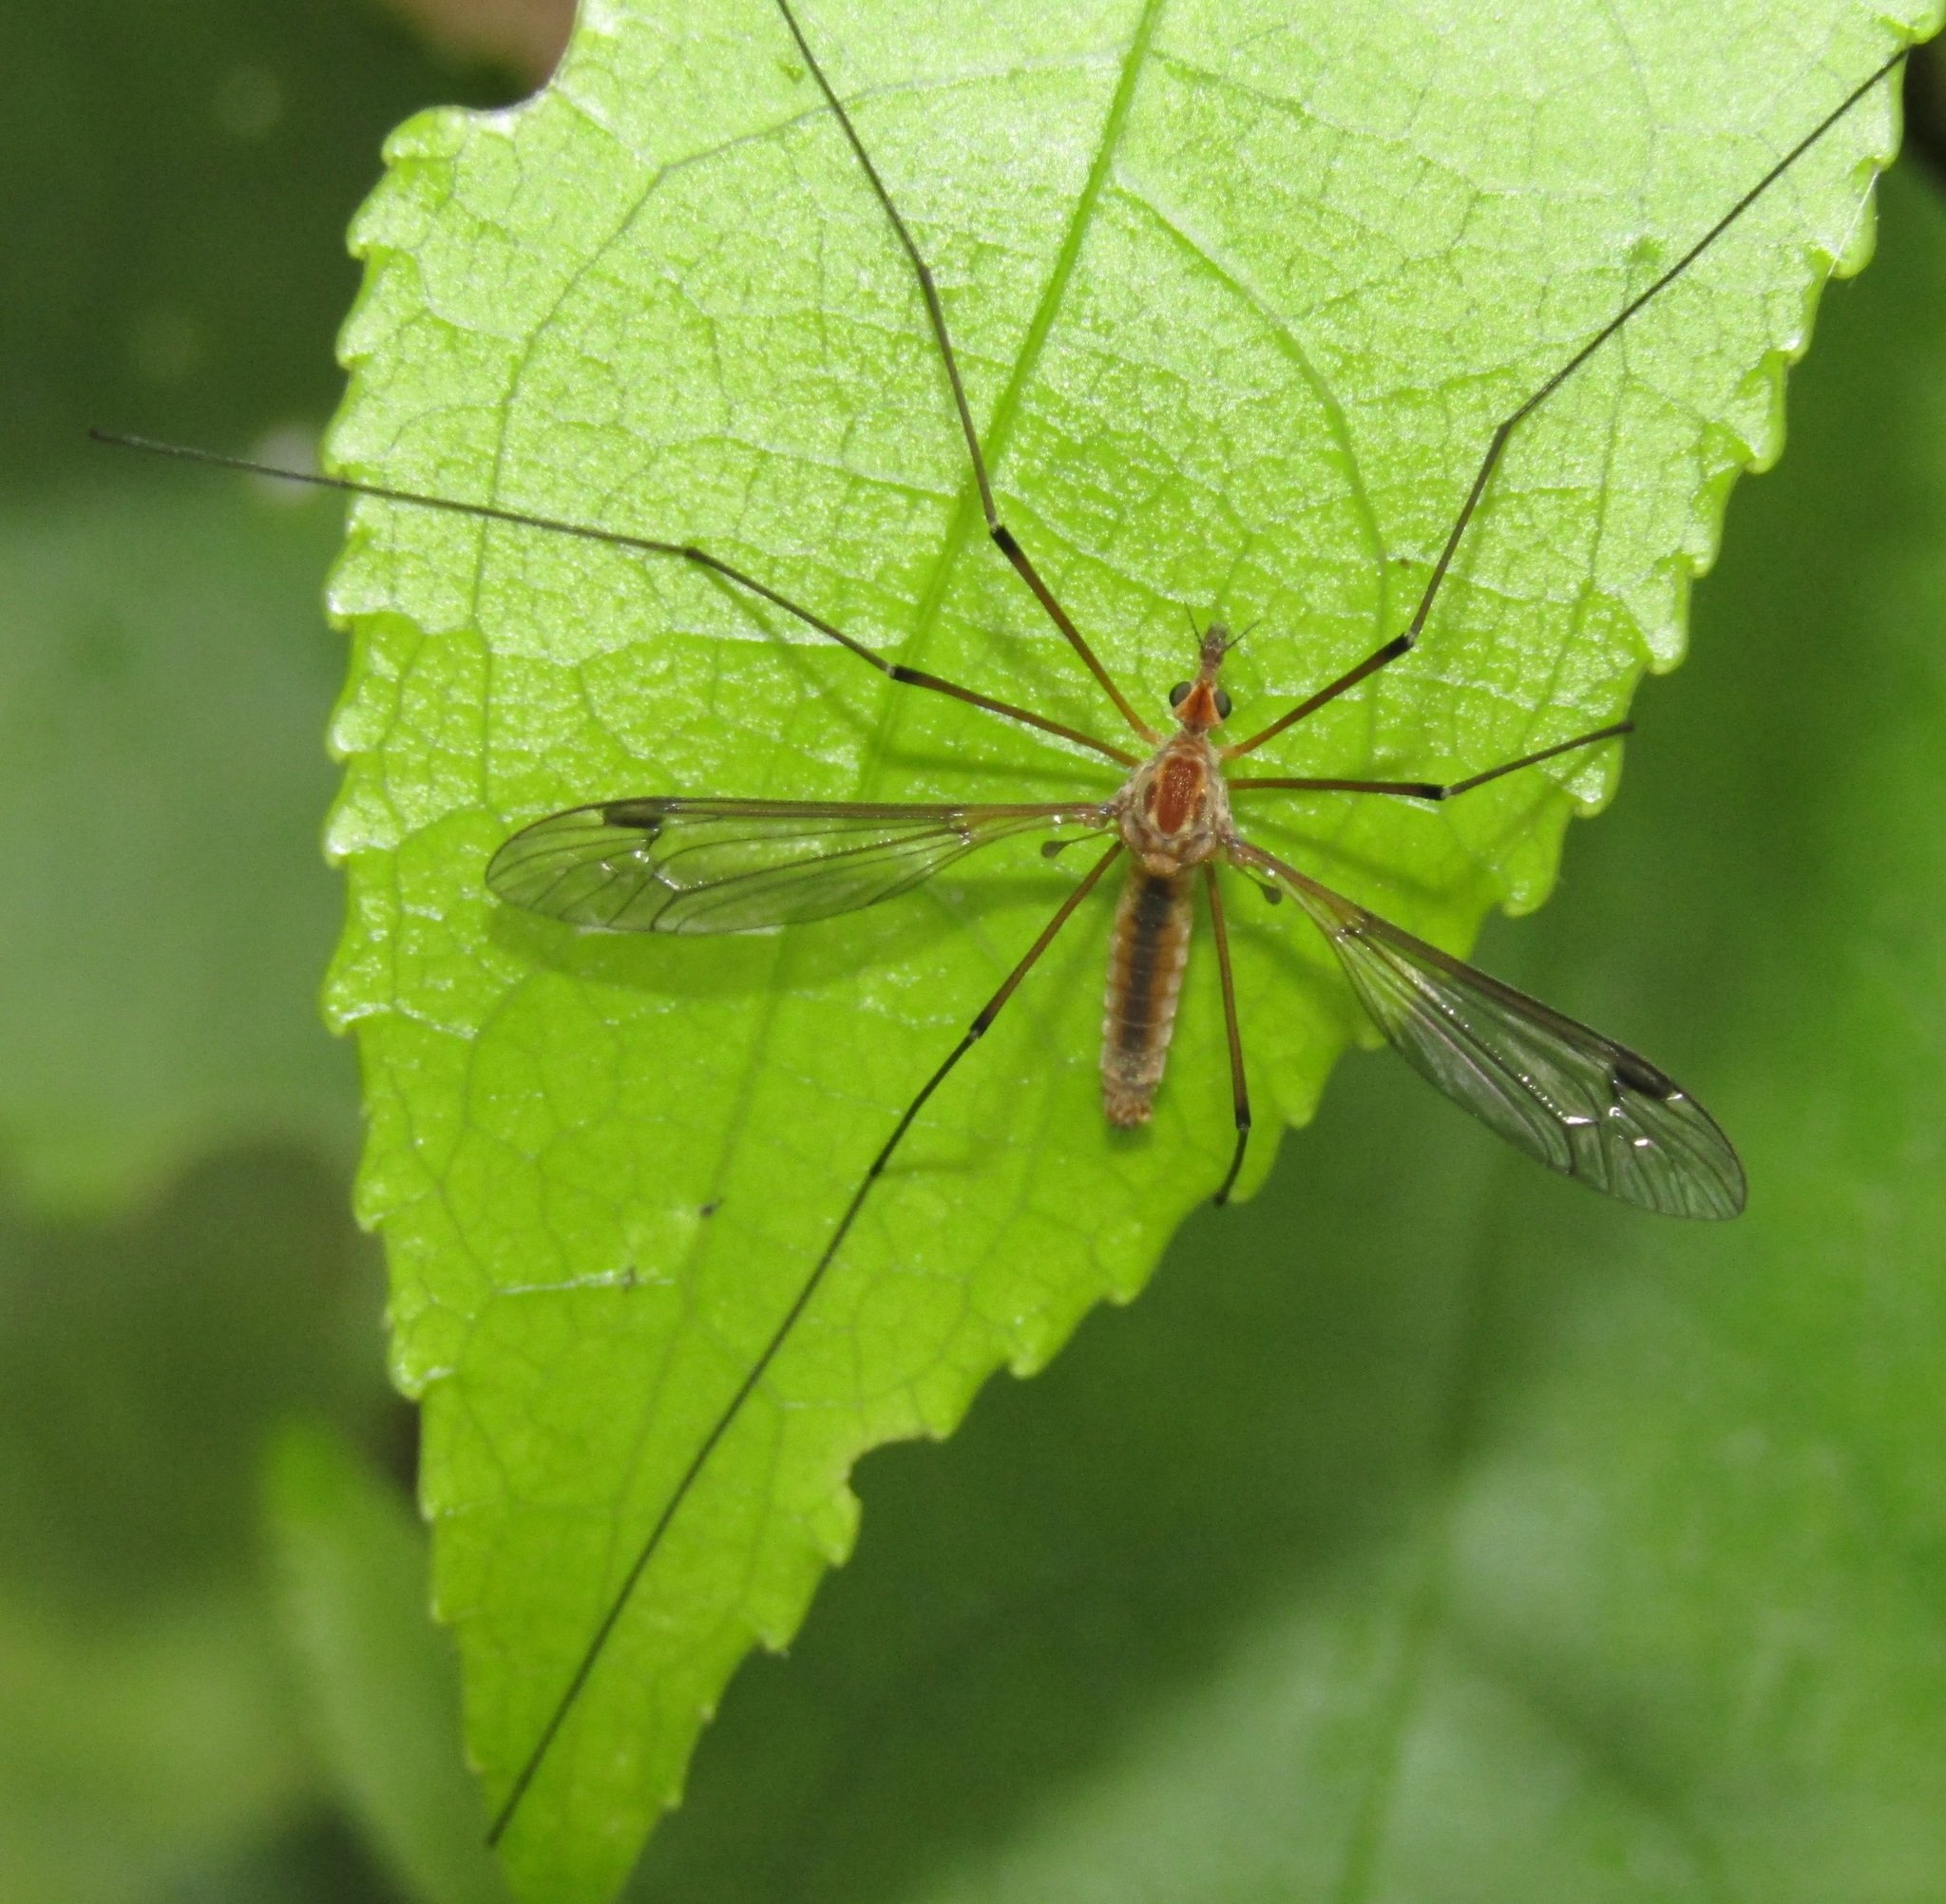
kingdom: Animalia
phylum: Arthropoda
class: Insecta
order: Diptera
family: Tipulidae
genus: Leptotarsus
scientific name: Leptotarsus dichroithorax
